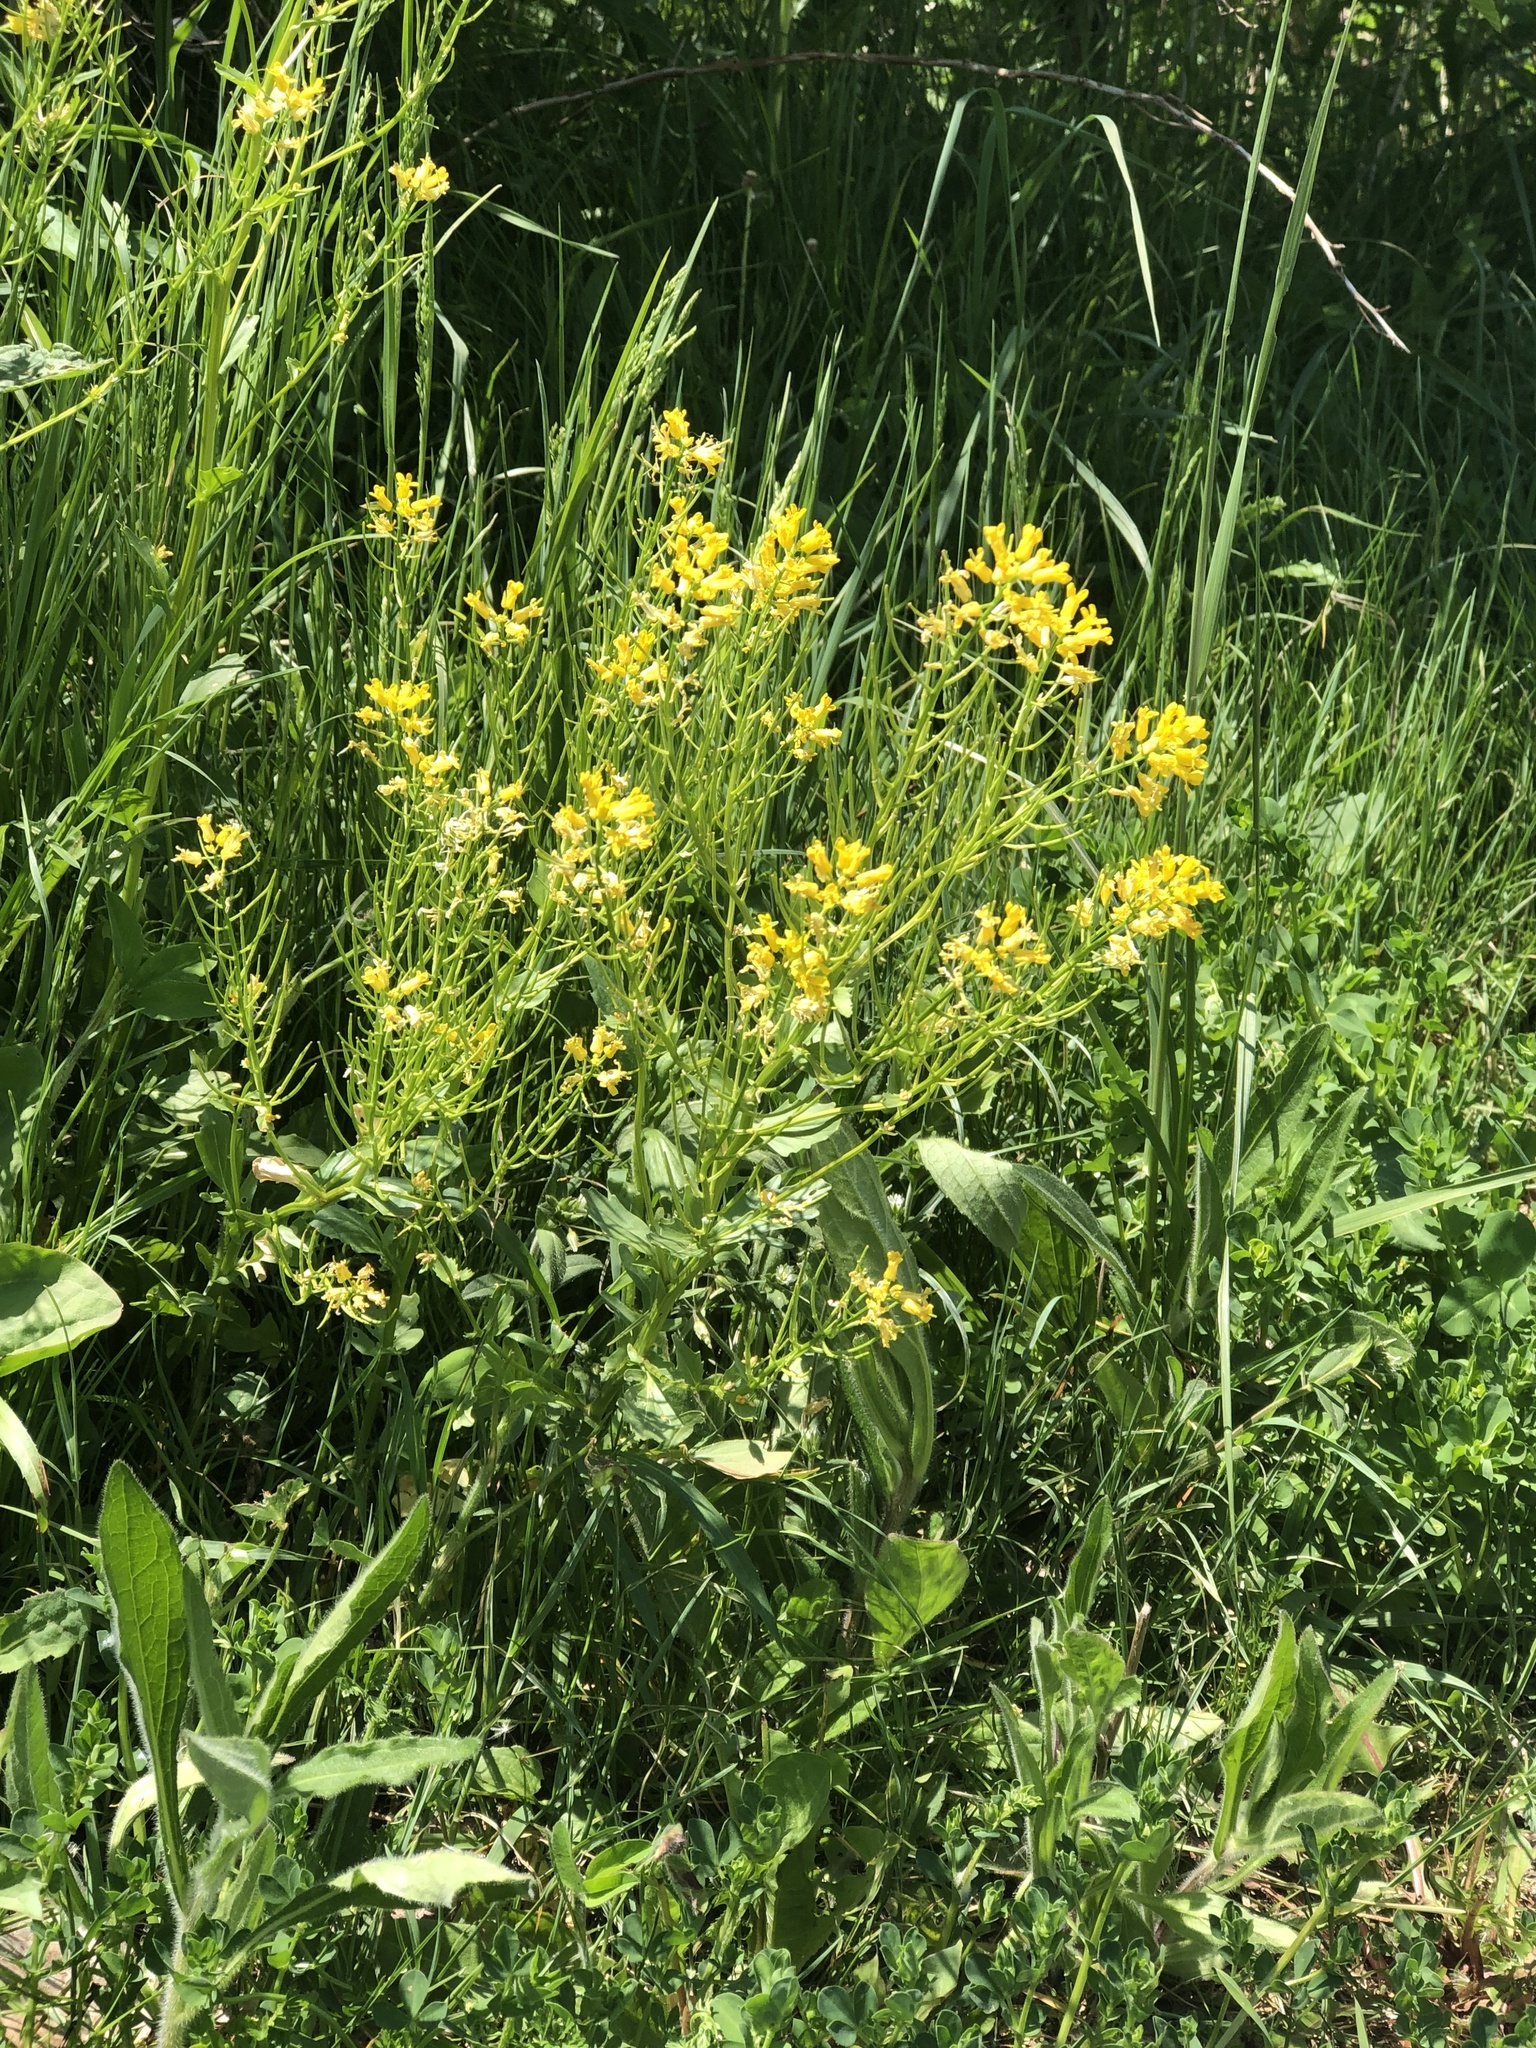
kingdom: Plantae
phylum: Tracheophyta
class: Magnoliopsida
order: Brassicales
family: Brassicaceae
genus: Barbarea
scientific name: Barbarea vulgaris
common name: Cressy-greens
